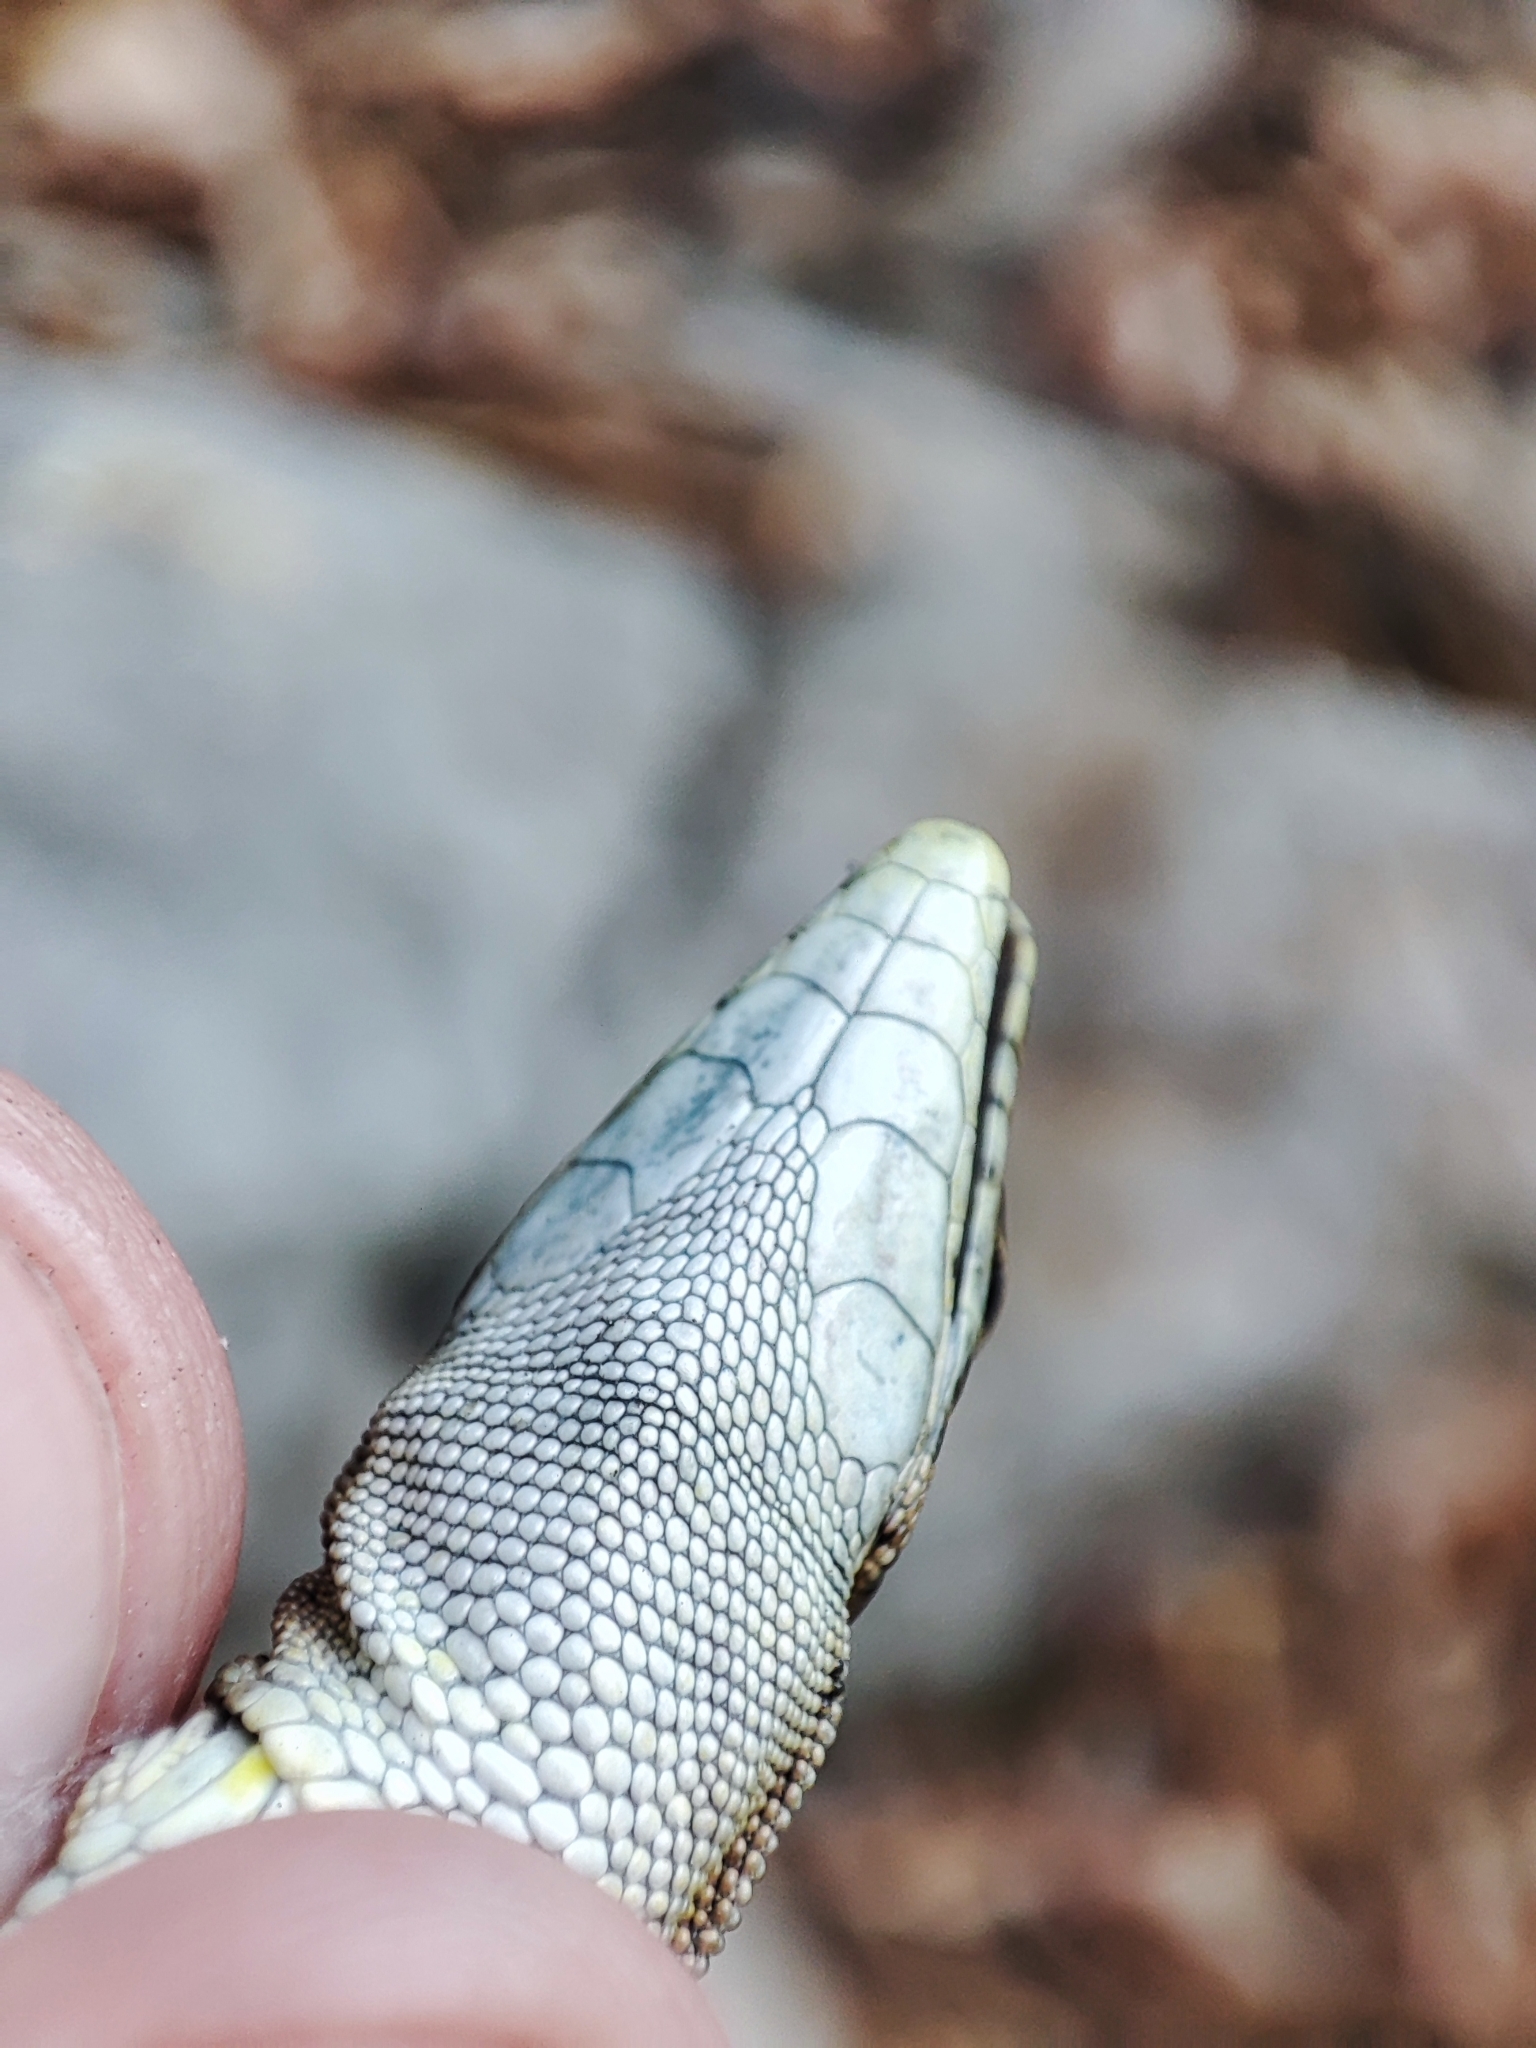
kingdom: Animalia
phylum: Chordata
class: Squamata
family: Lacertidae
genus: Darevskia
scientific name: Darevskia dahli
